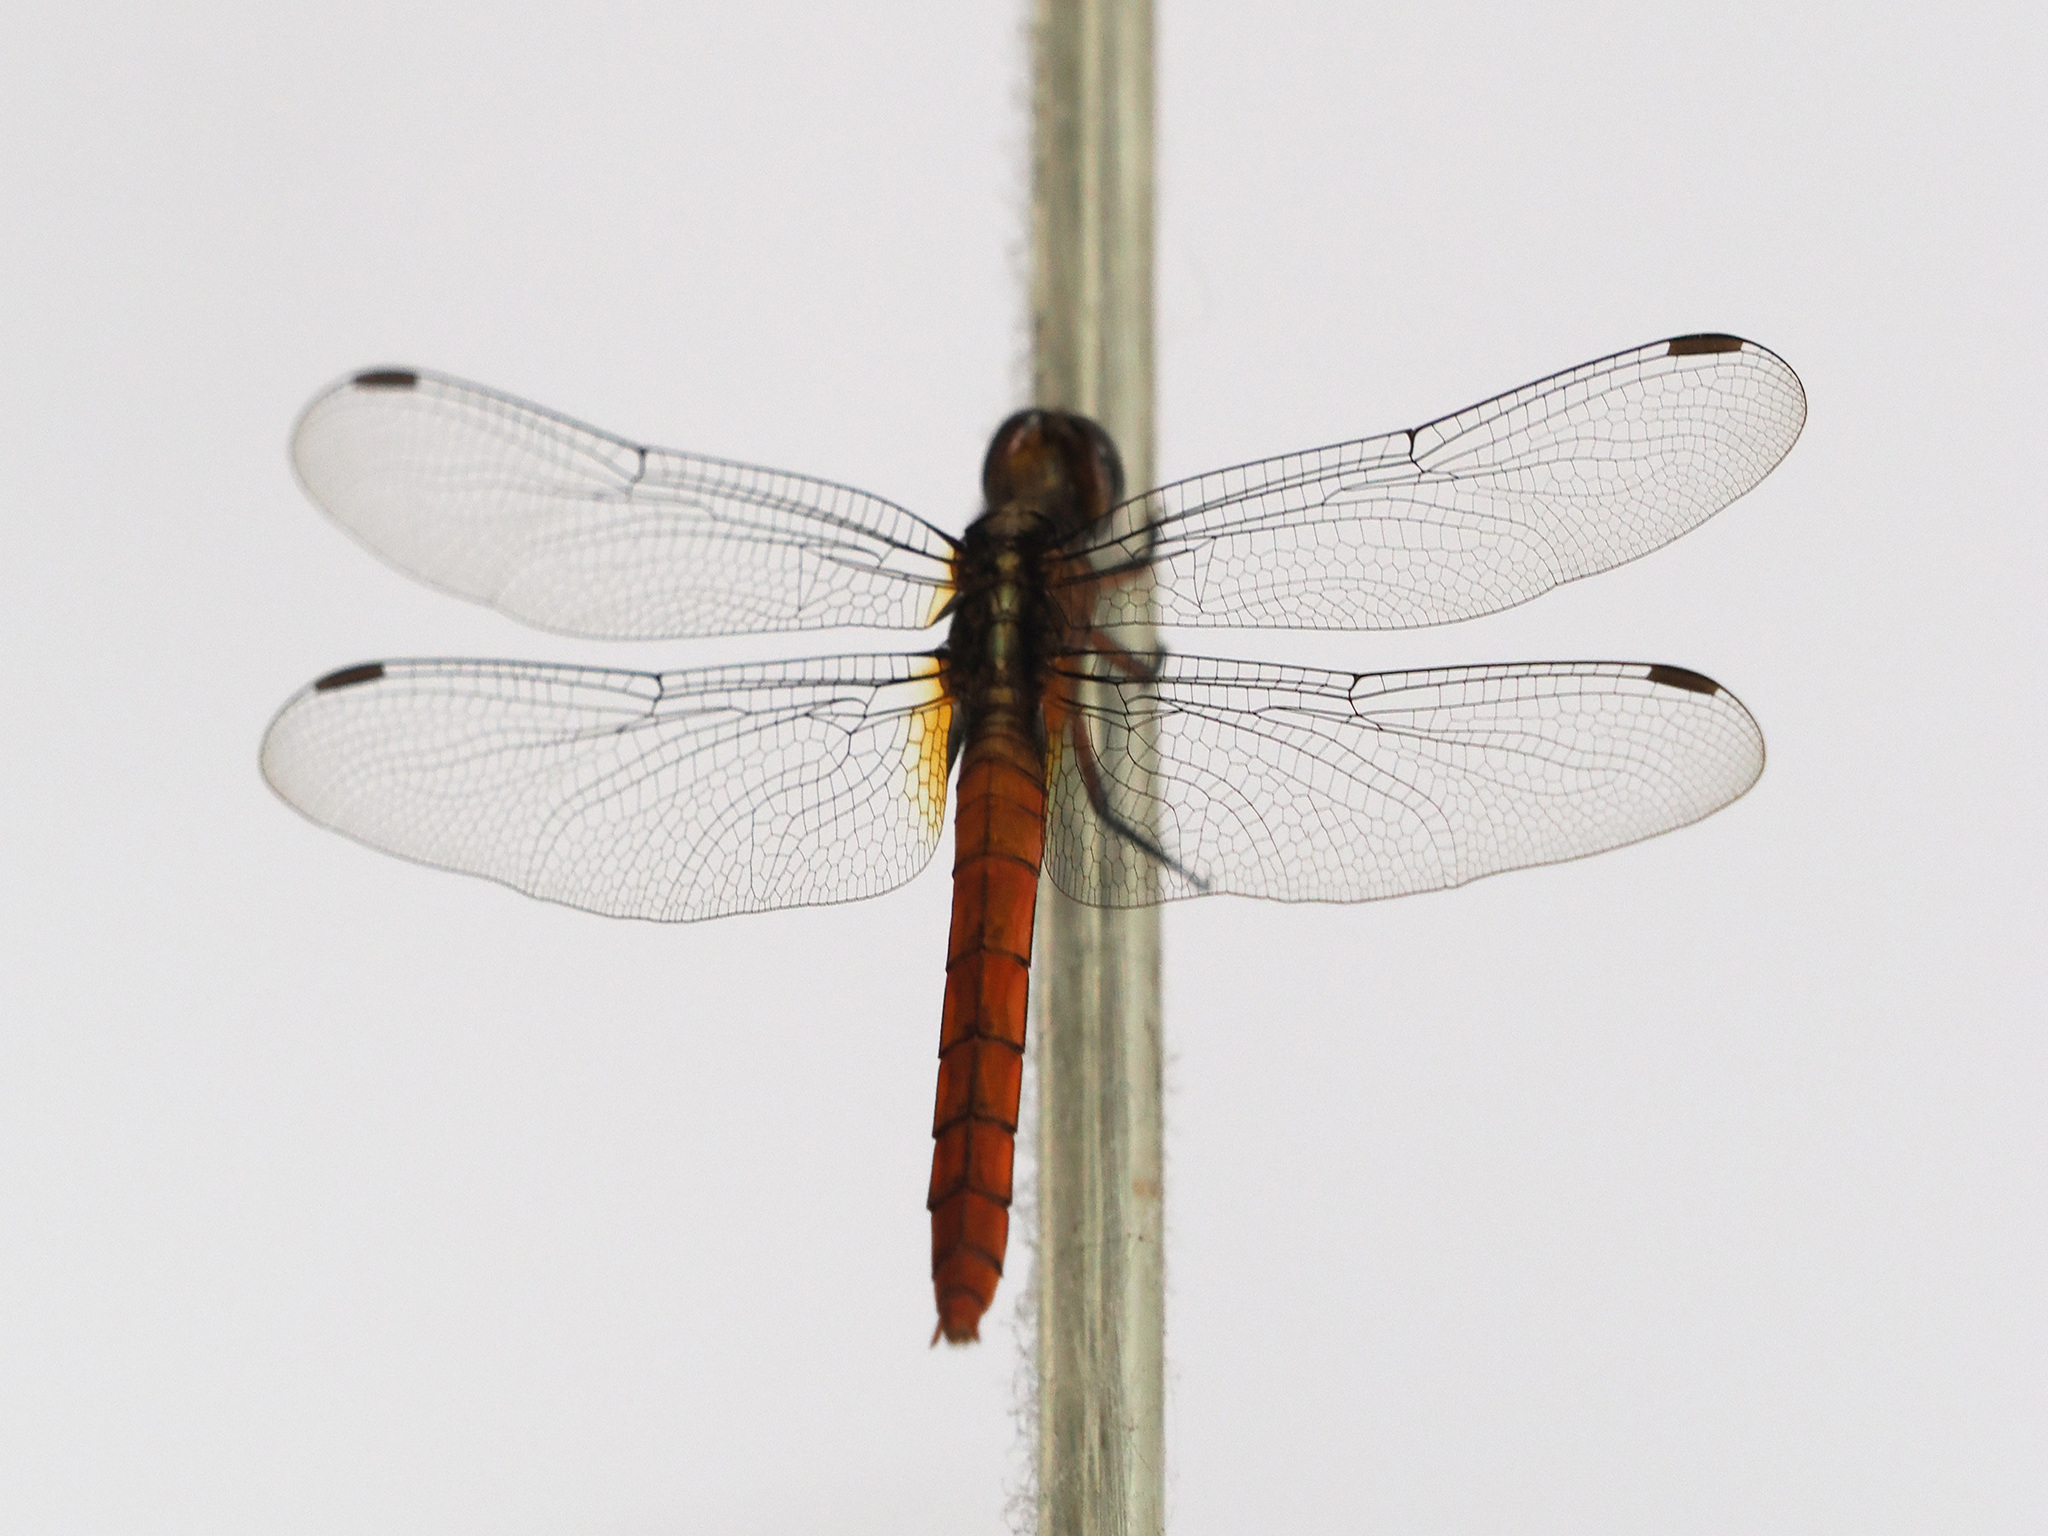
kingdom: Animalia
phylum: Arthropoda
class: Insecta
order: Odonata
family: Libellulidae
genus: Orthetrum
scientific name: Orthetrum chrysis
